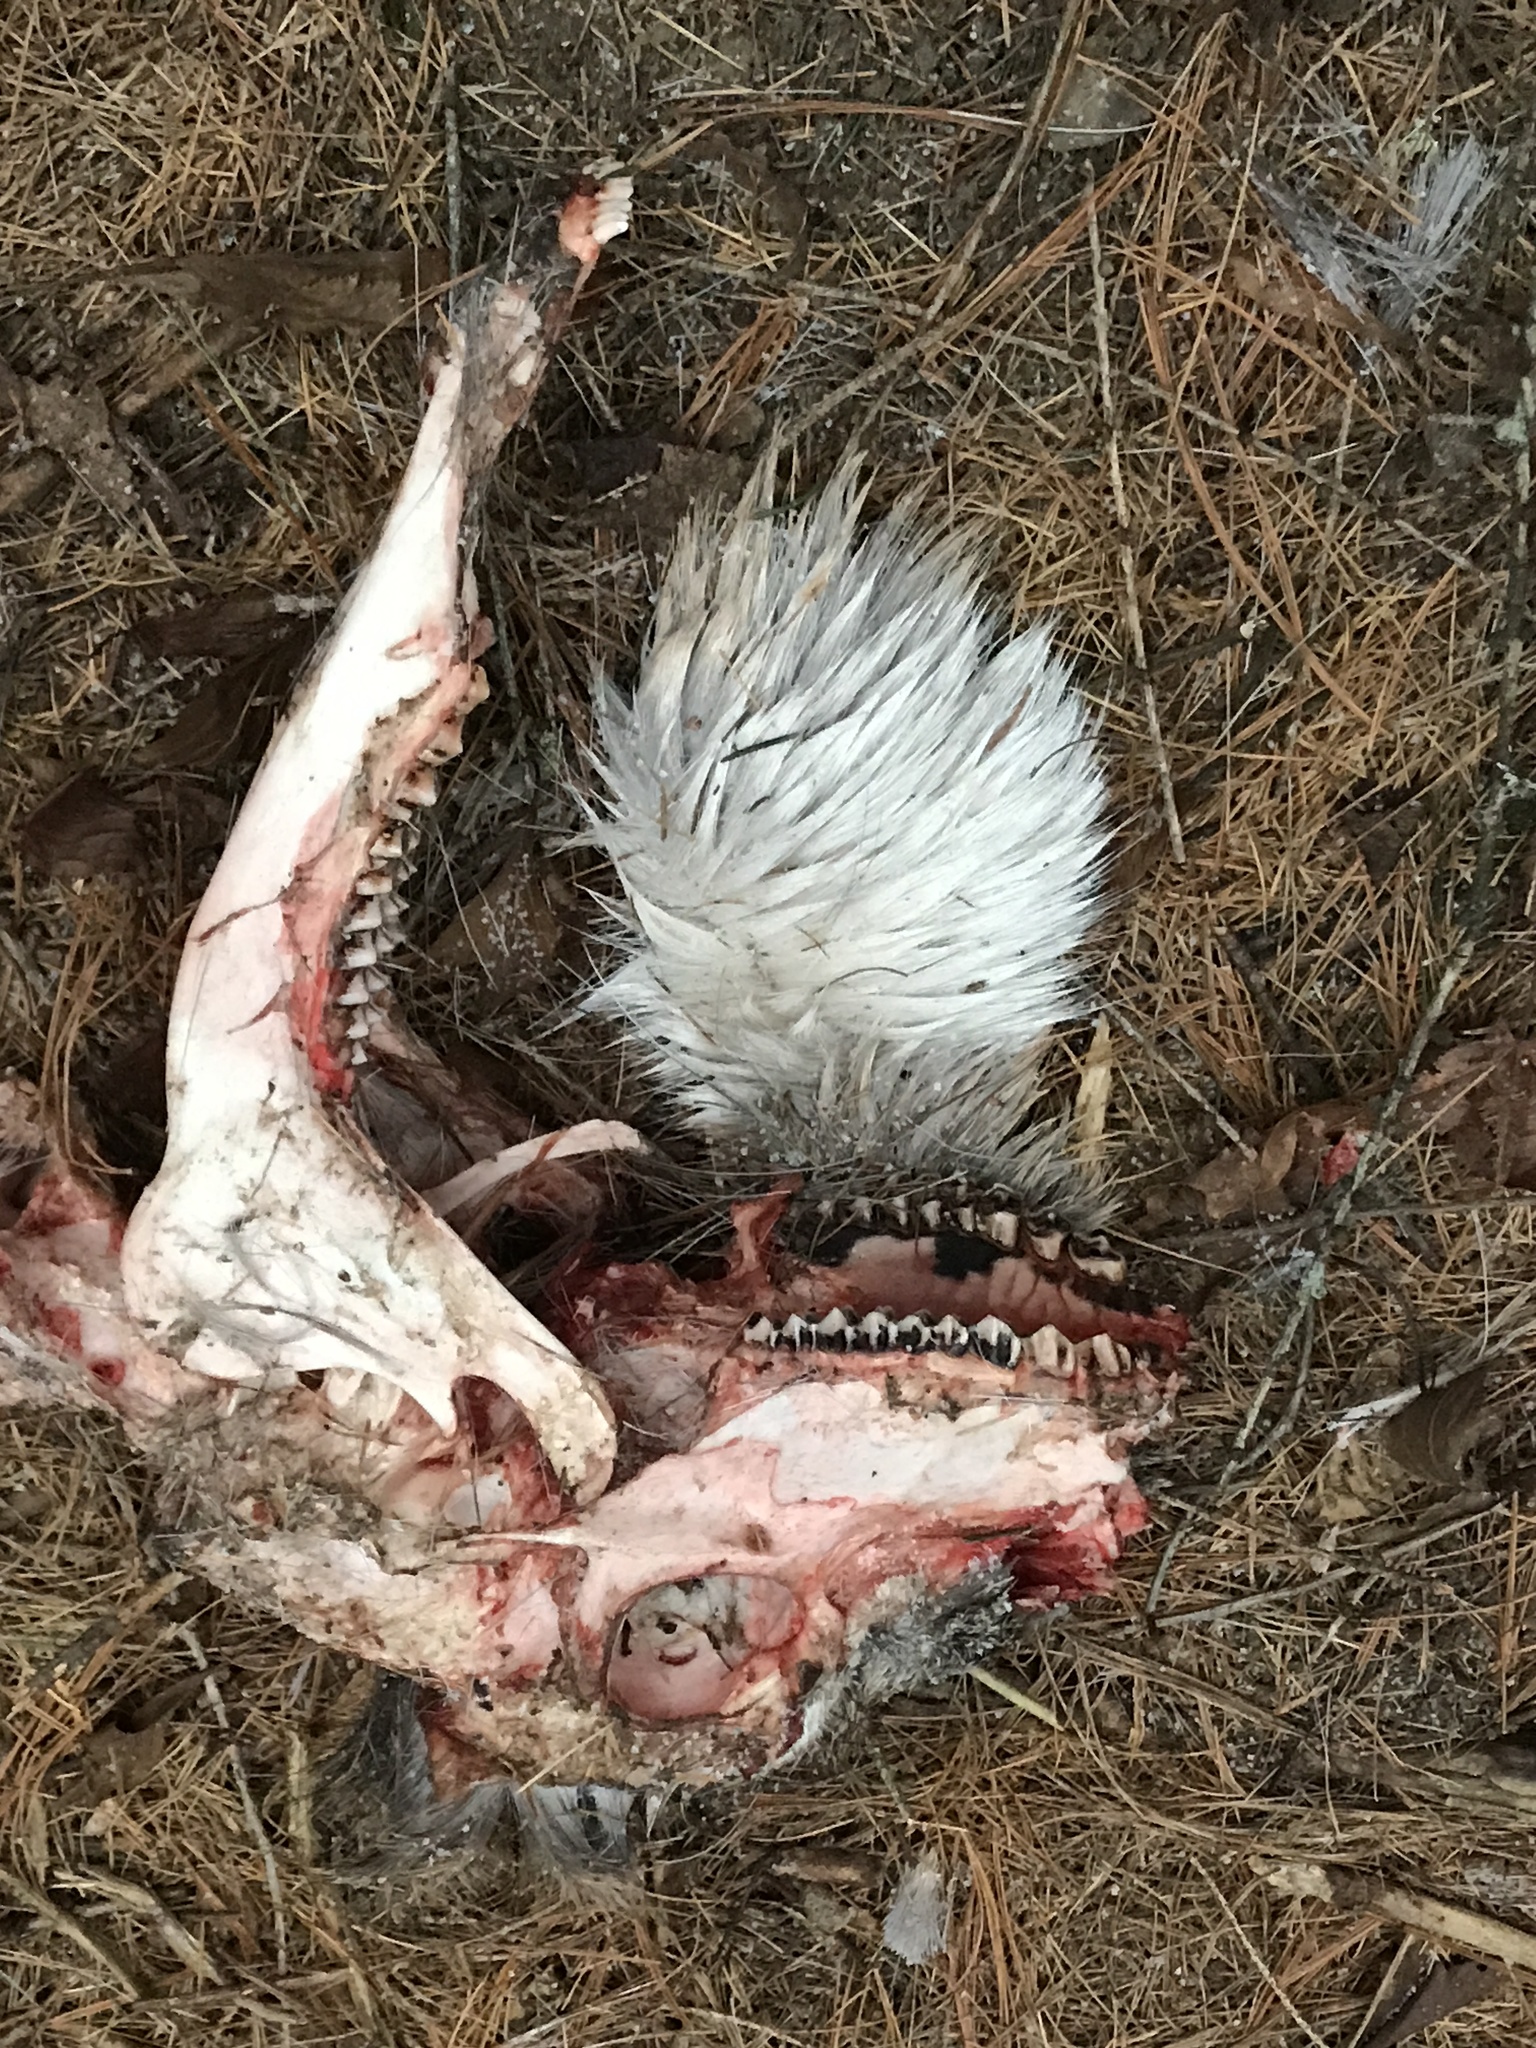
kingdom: Animalia
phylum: Chordata
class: Mammalia
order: Artiodactyla
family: Cervidae
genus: Odocoileus
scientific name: Odocoileus virginianus
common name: White-tailed deer
